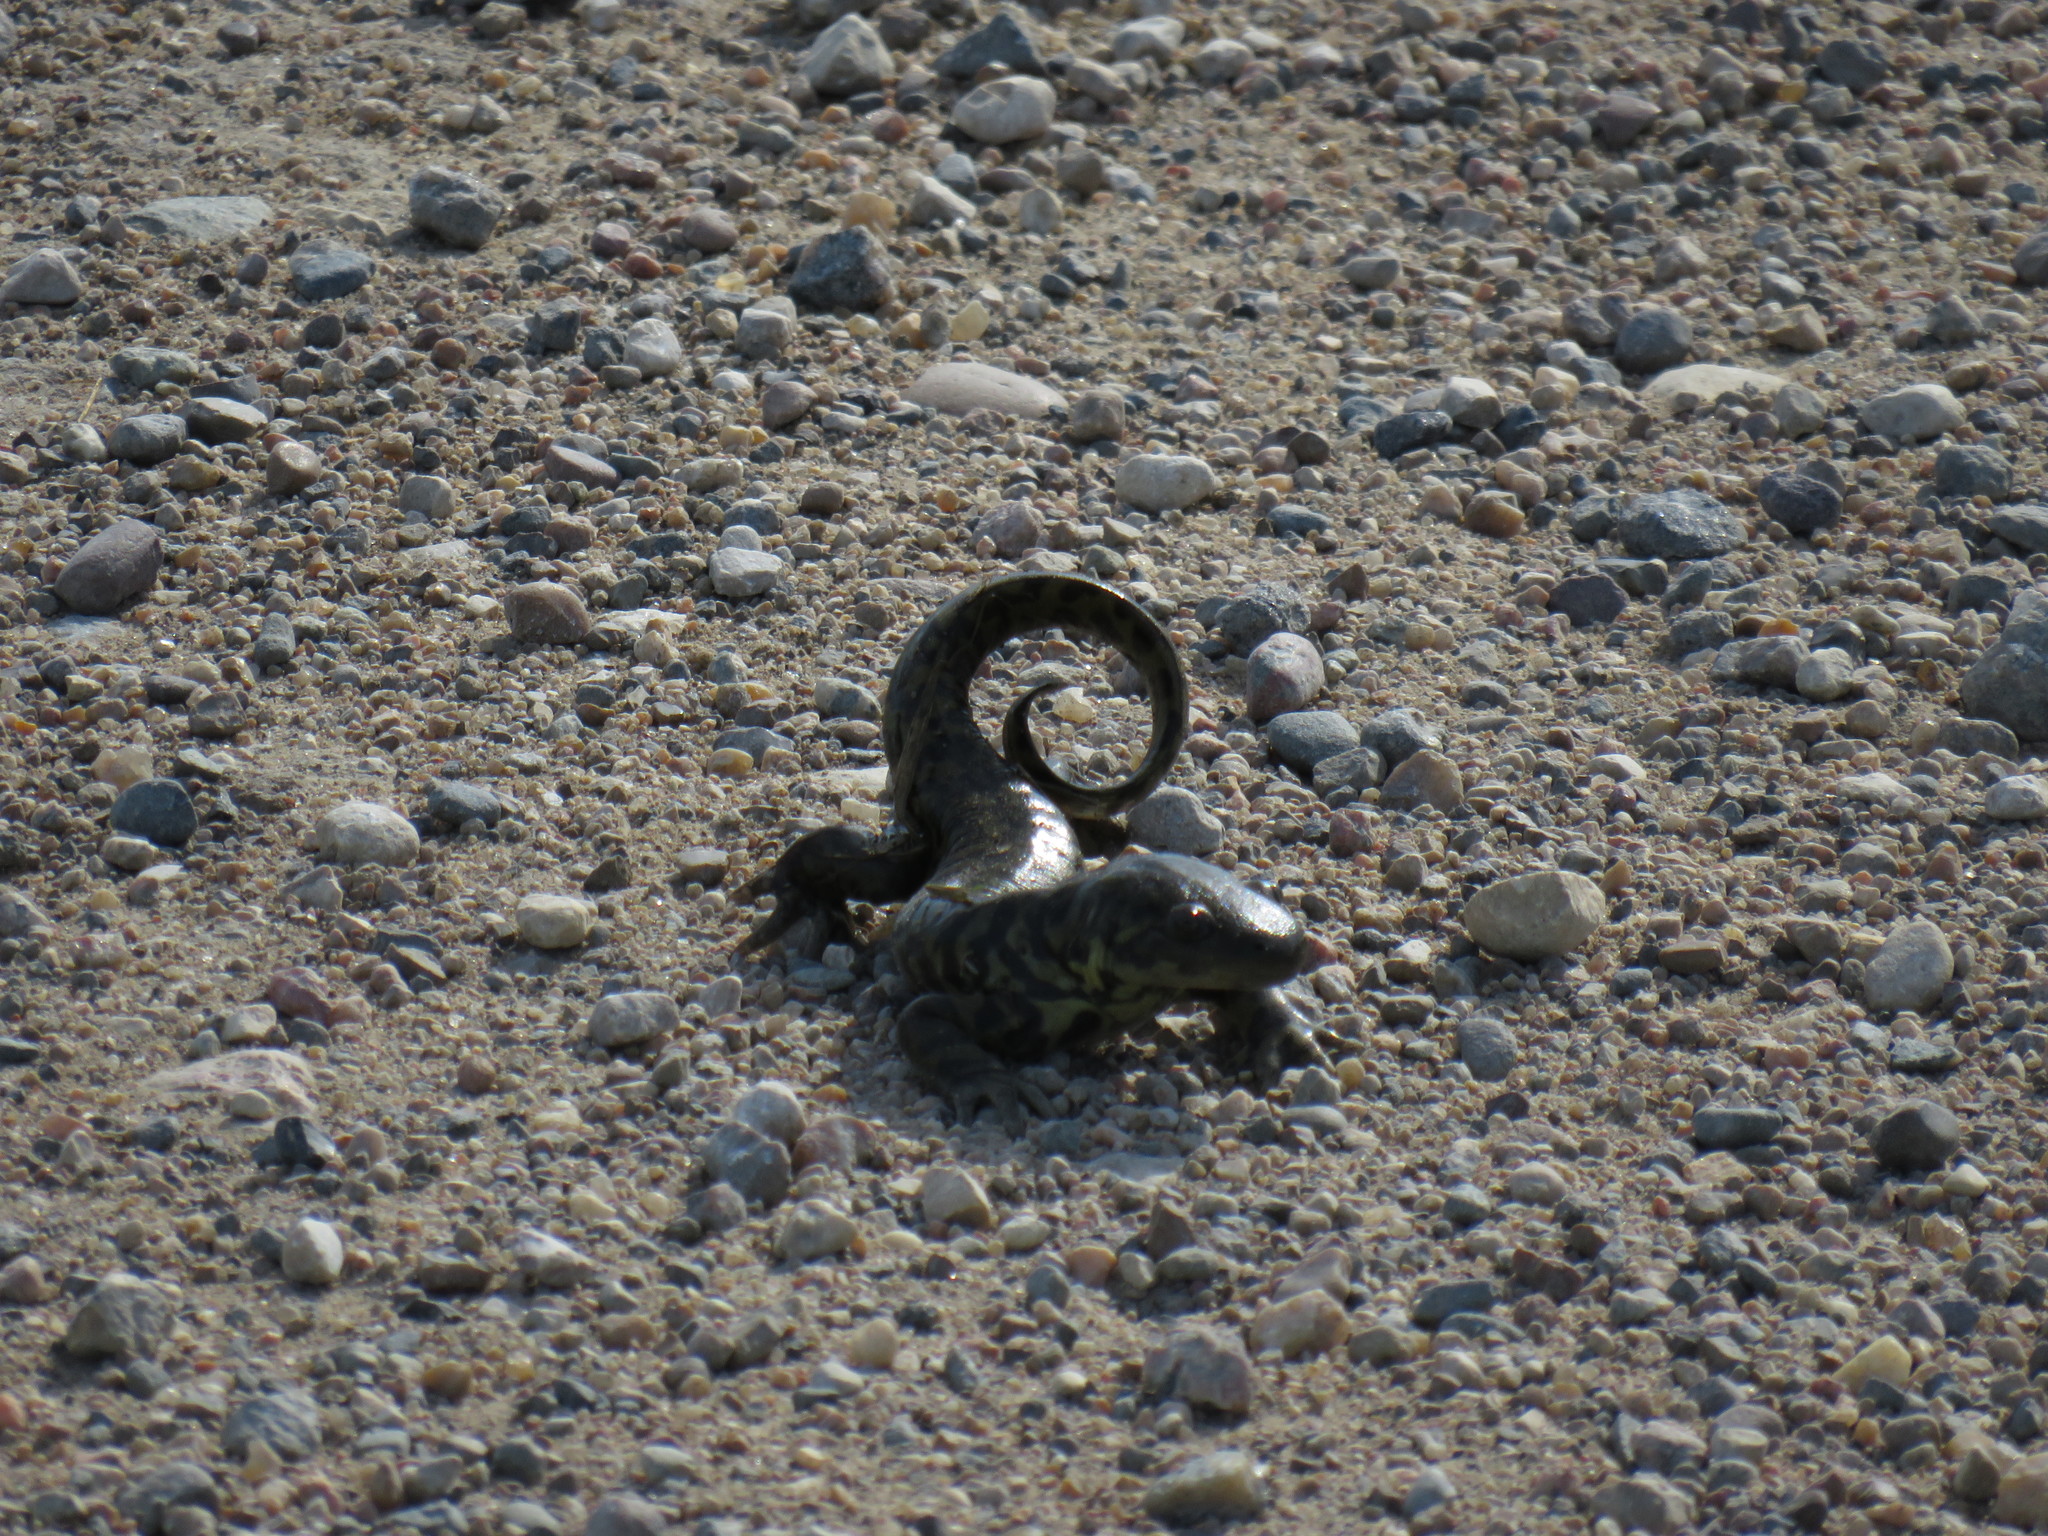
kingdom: Animalia
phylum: Chordata
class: Amphibia
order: Caudata
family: Ambystomatidae
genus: Ambystoma
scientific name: Ambystoma mavortium
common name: Western tiger salamander
